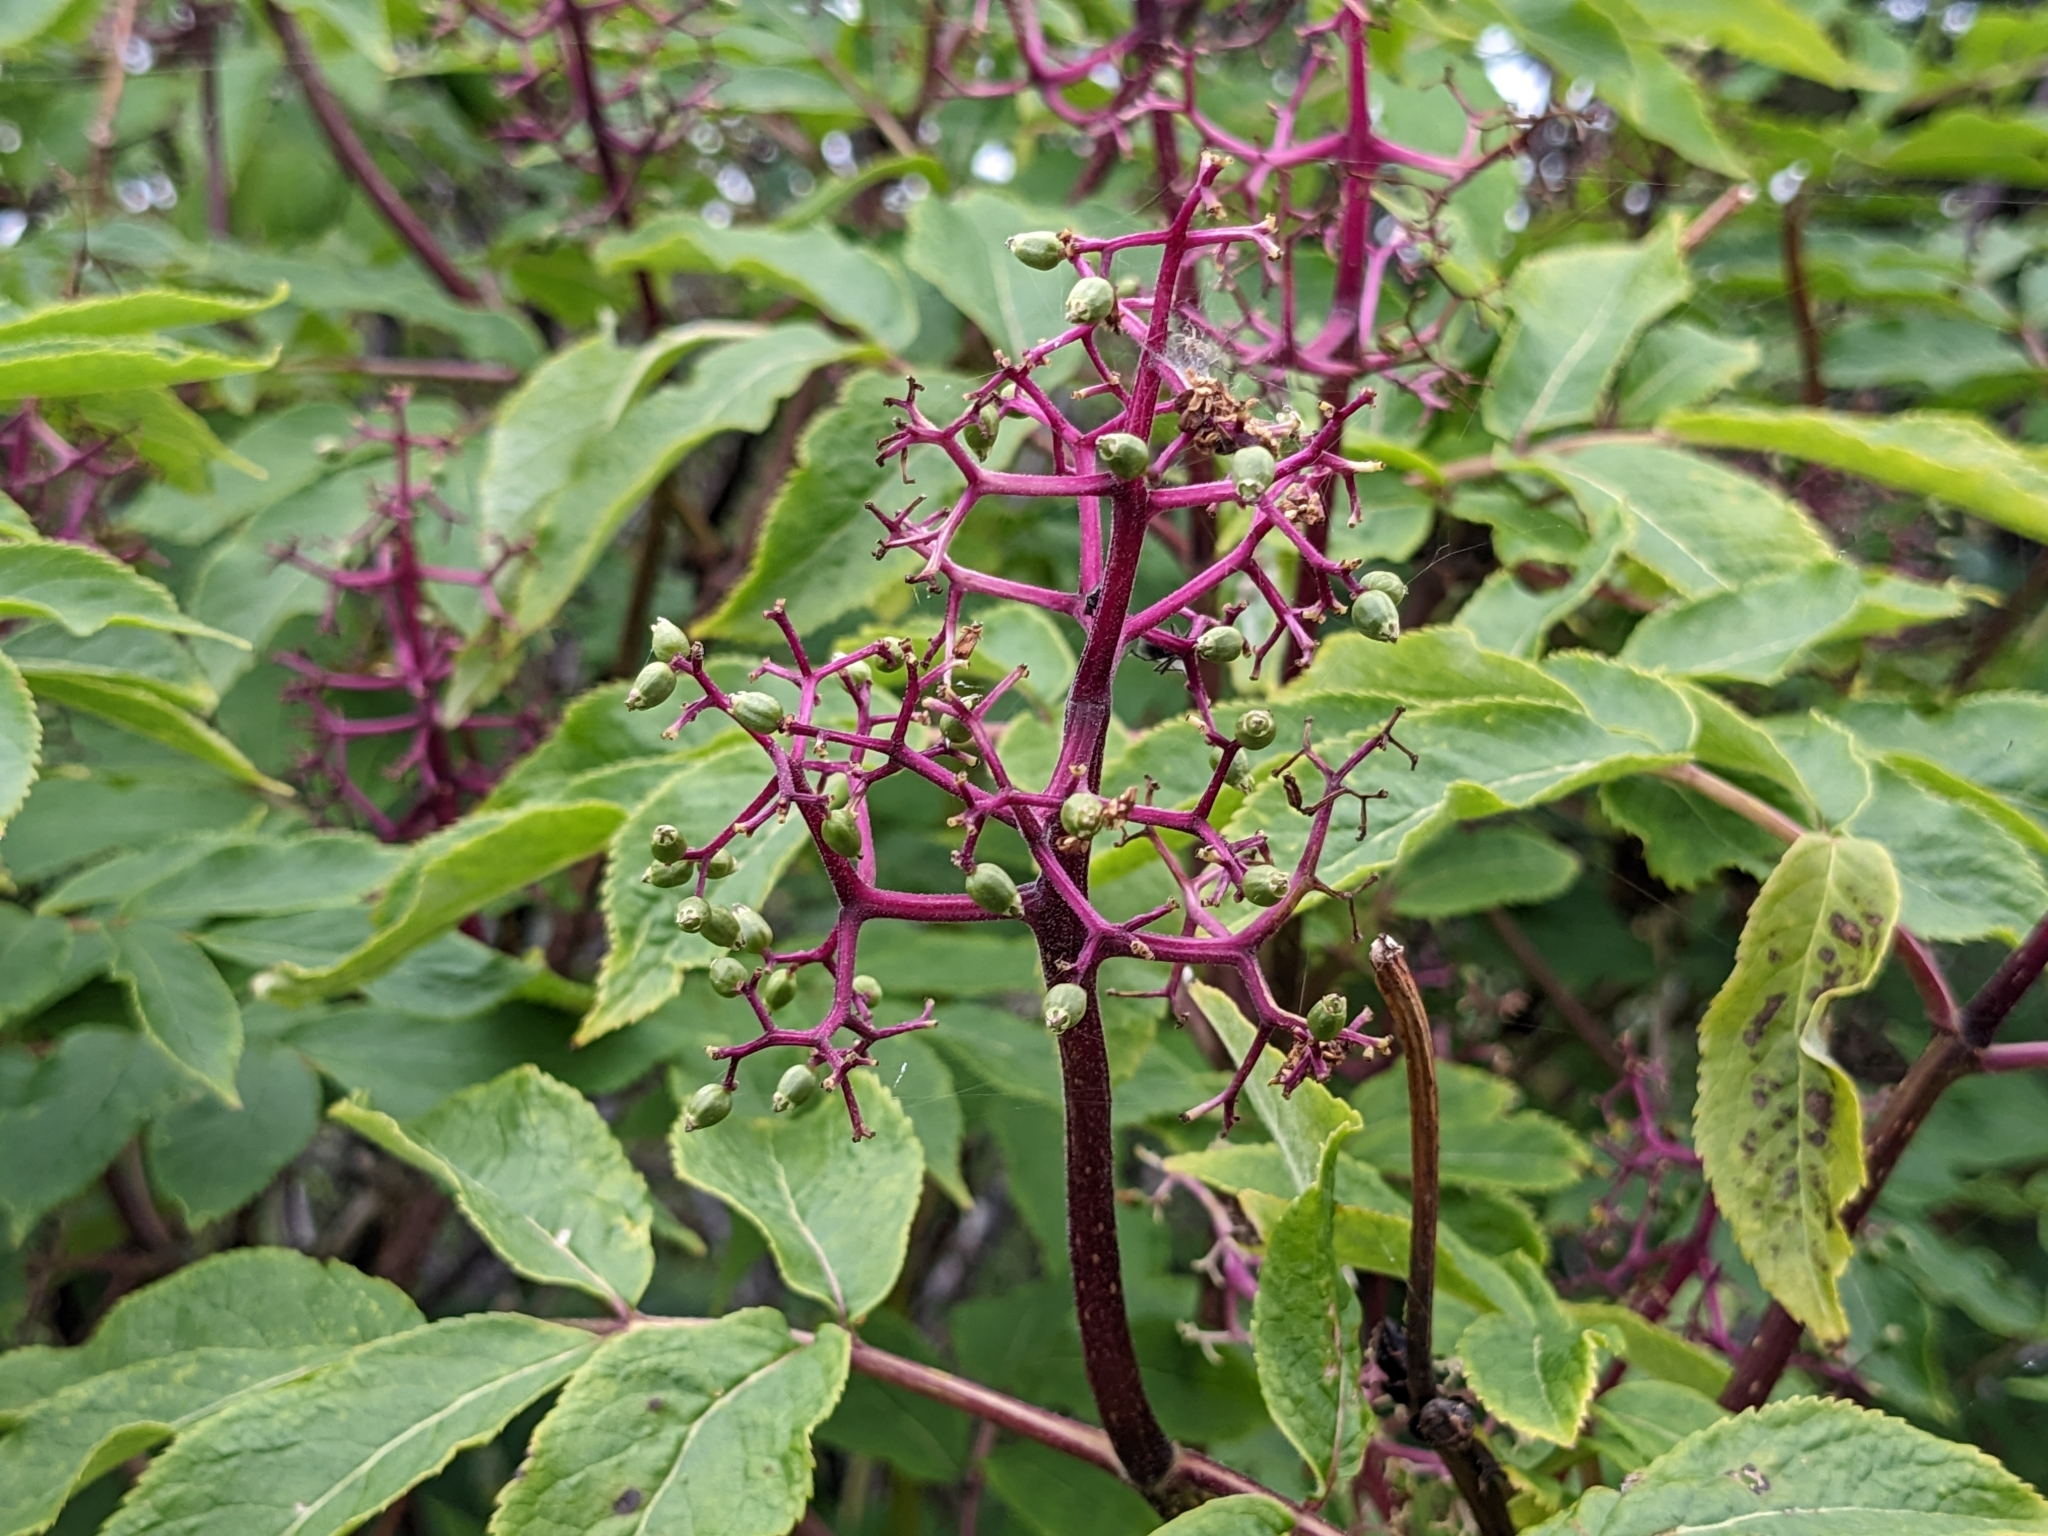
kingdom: Plantae
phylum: Tracheophyta
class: Magnoliopsida
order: Dipsacales
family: Viburnaceae
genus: Sambucus
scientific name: Sambucus racemosa
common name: Red-berried elder
